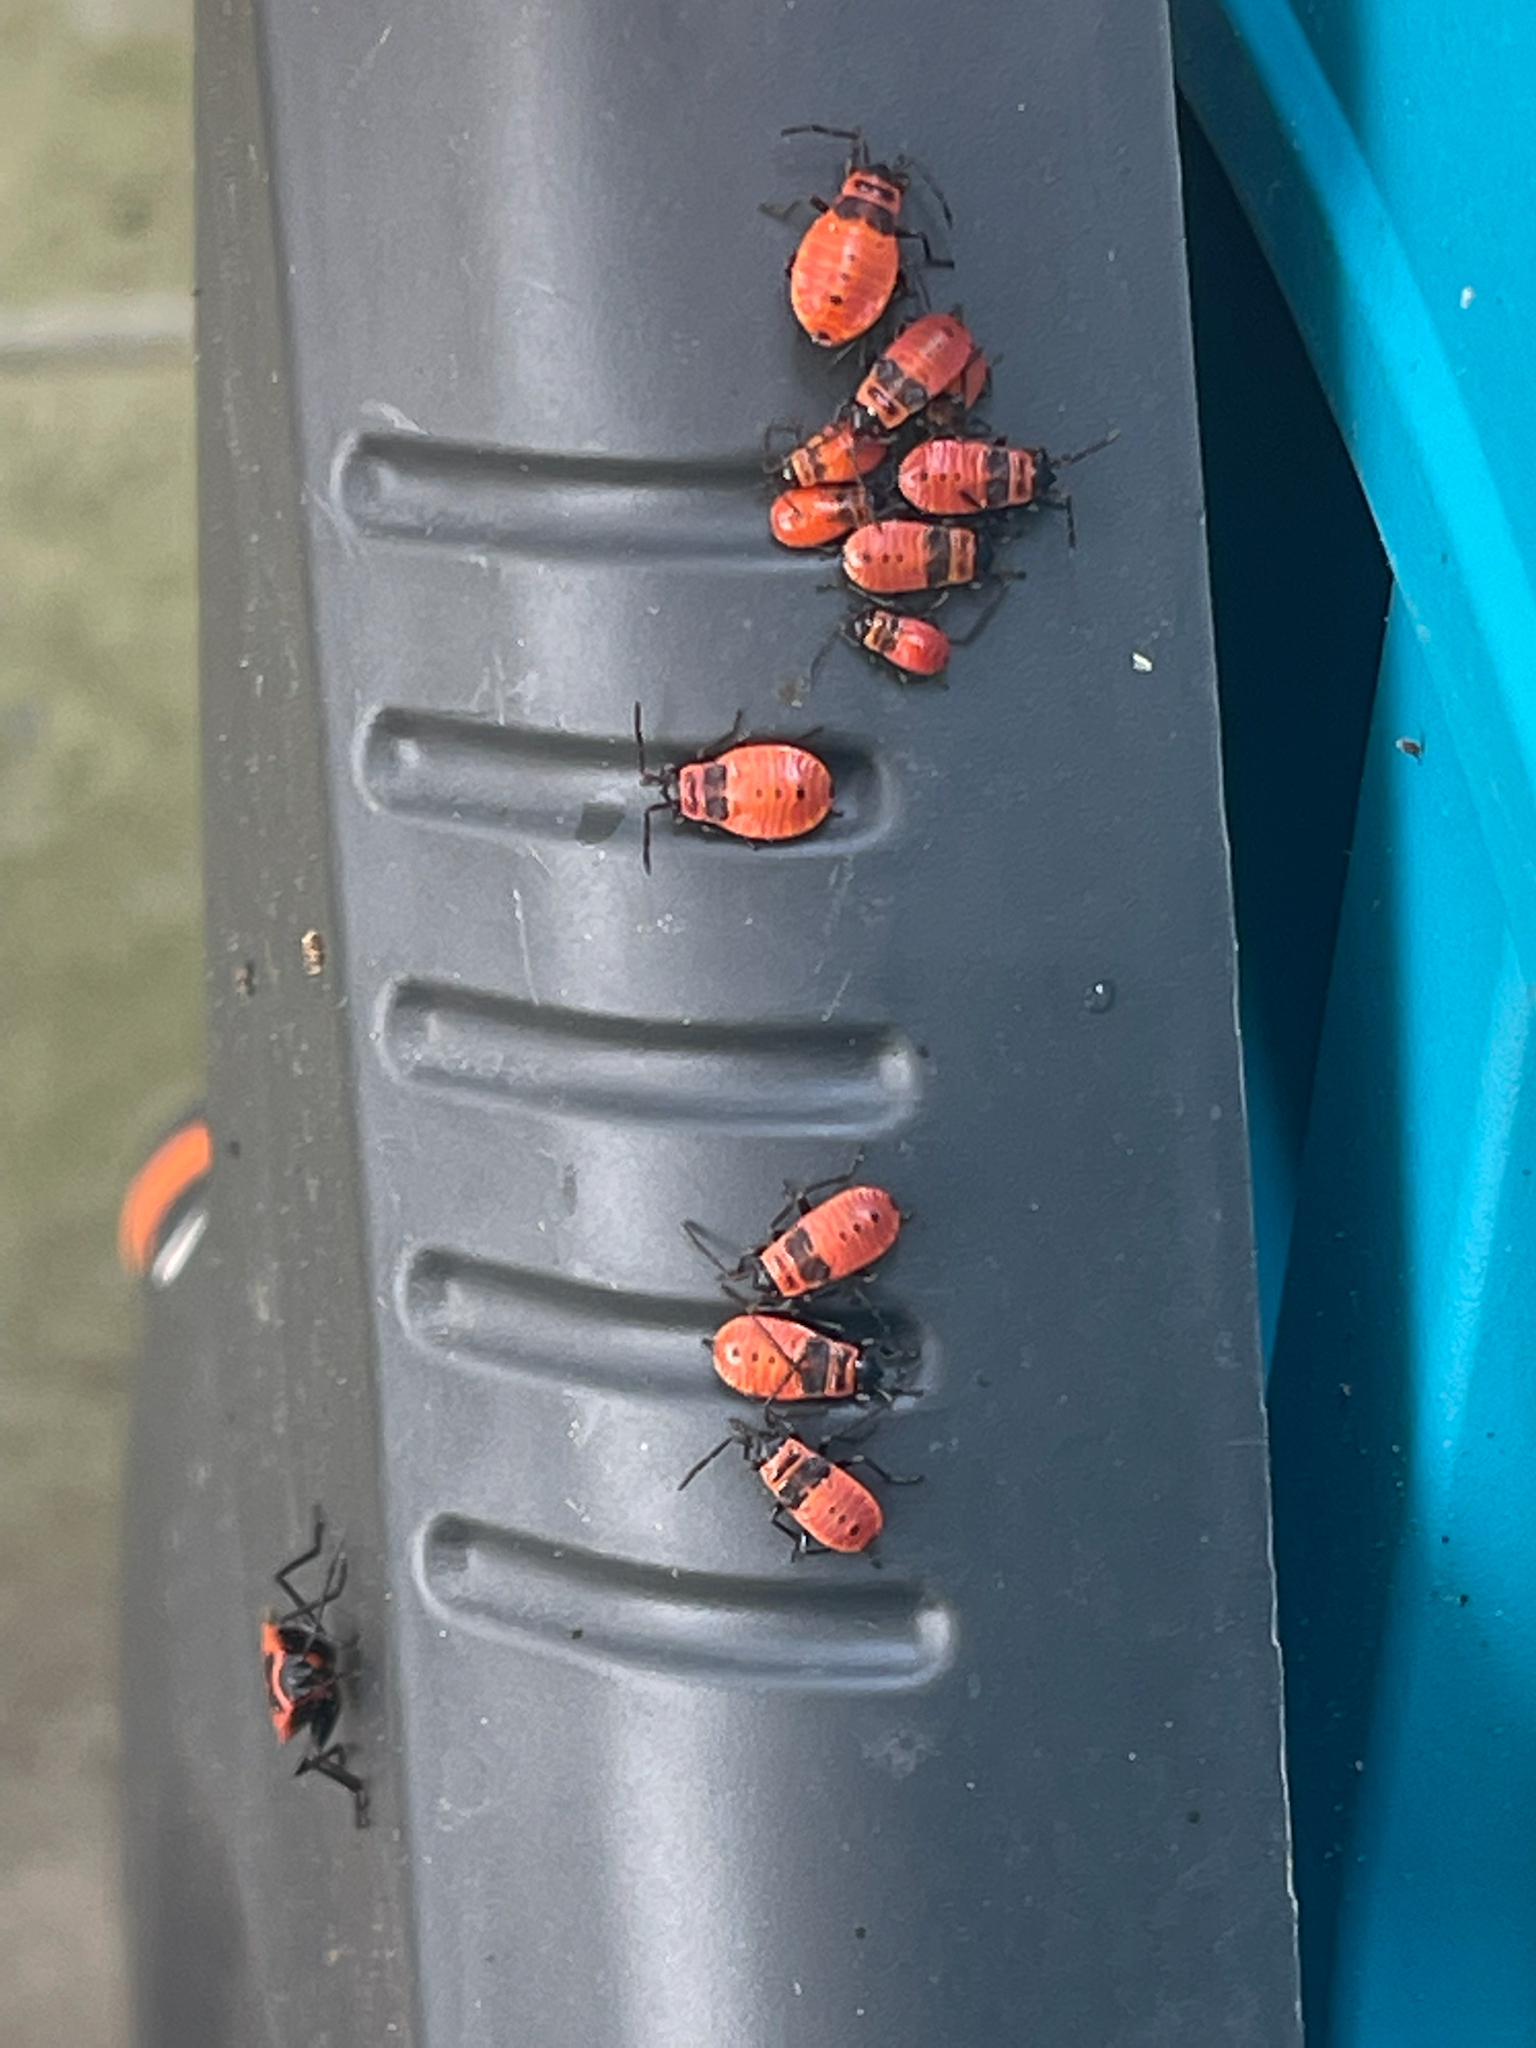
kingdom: Animalia
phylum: Arthropoda
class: Insecta
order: Hemiptera
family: Pyrrhocoridae
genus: Pyrrhocoris
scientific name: Pyrrhocoris apterus
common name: Firebug
